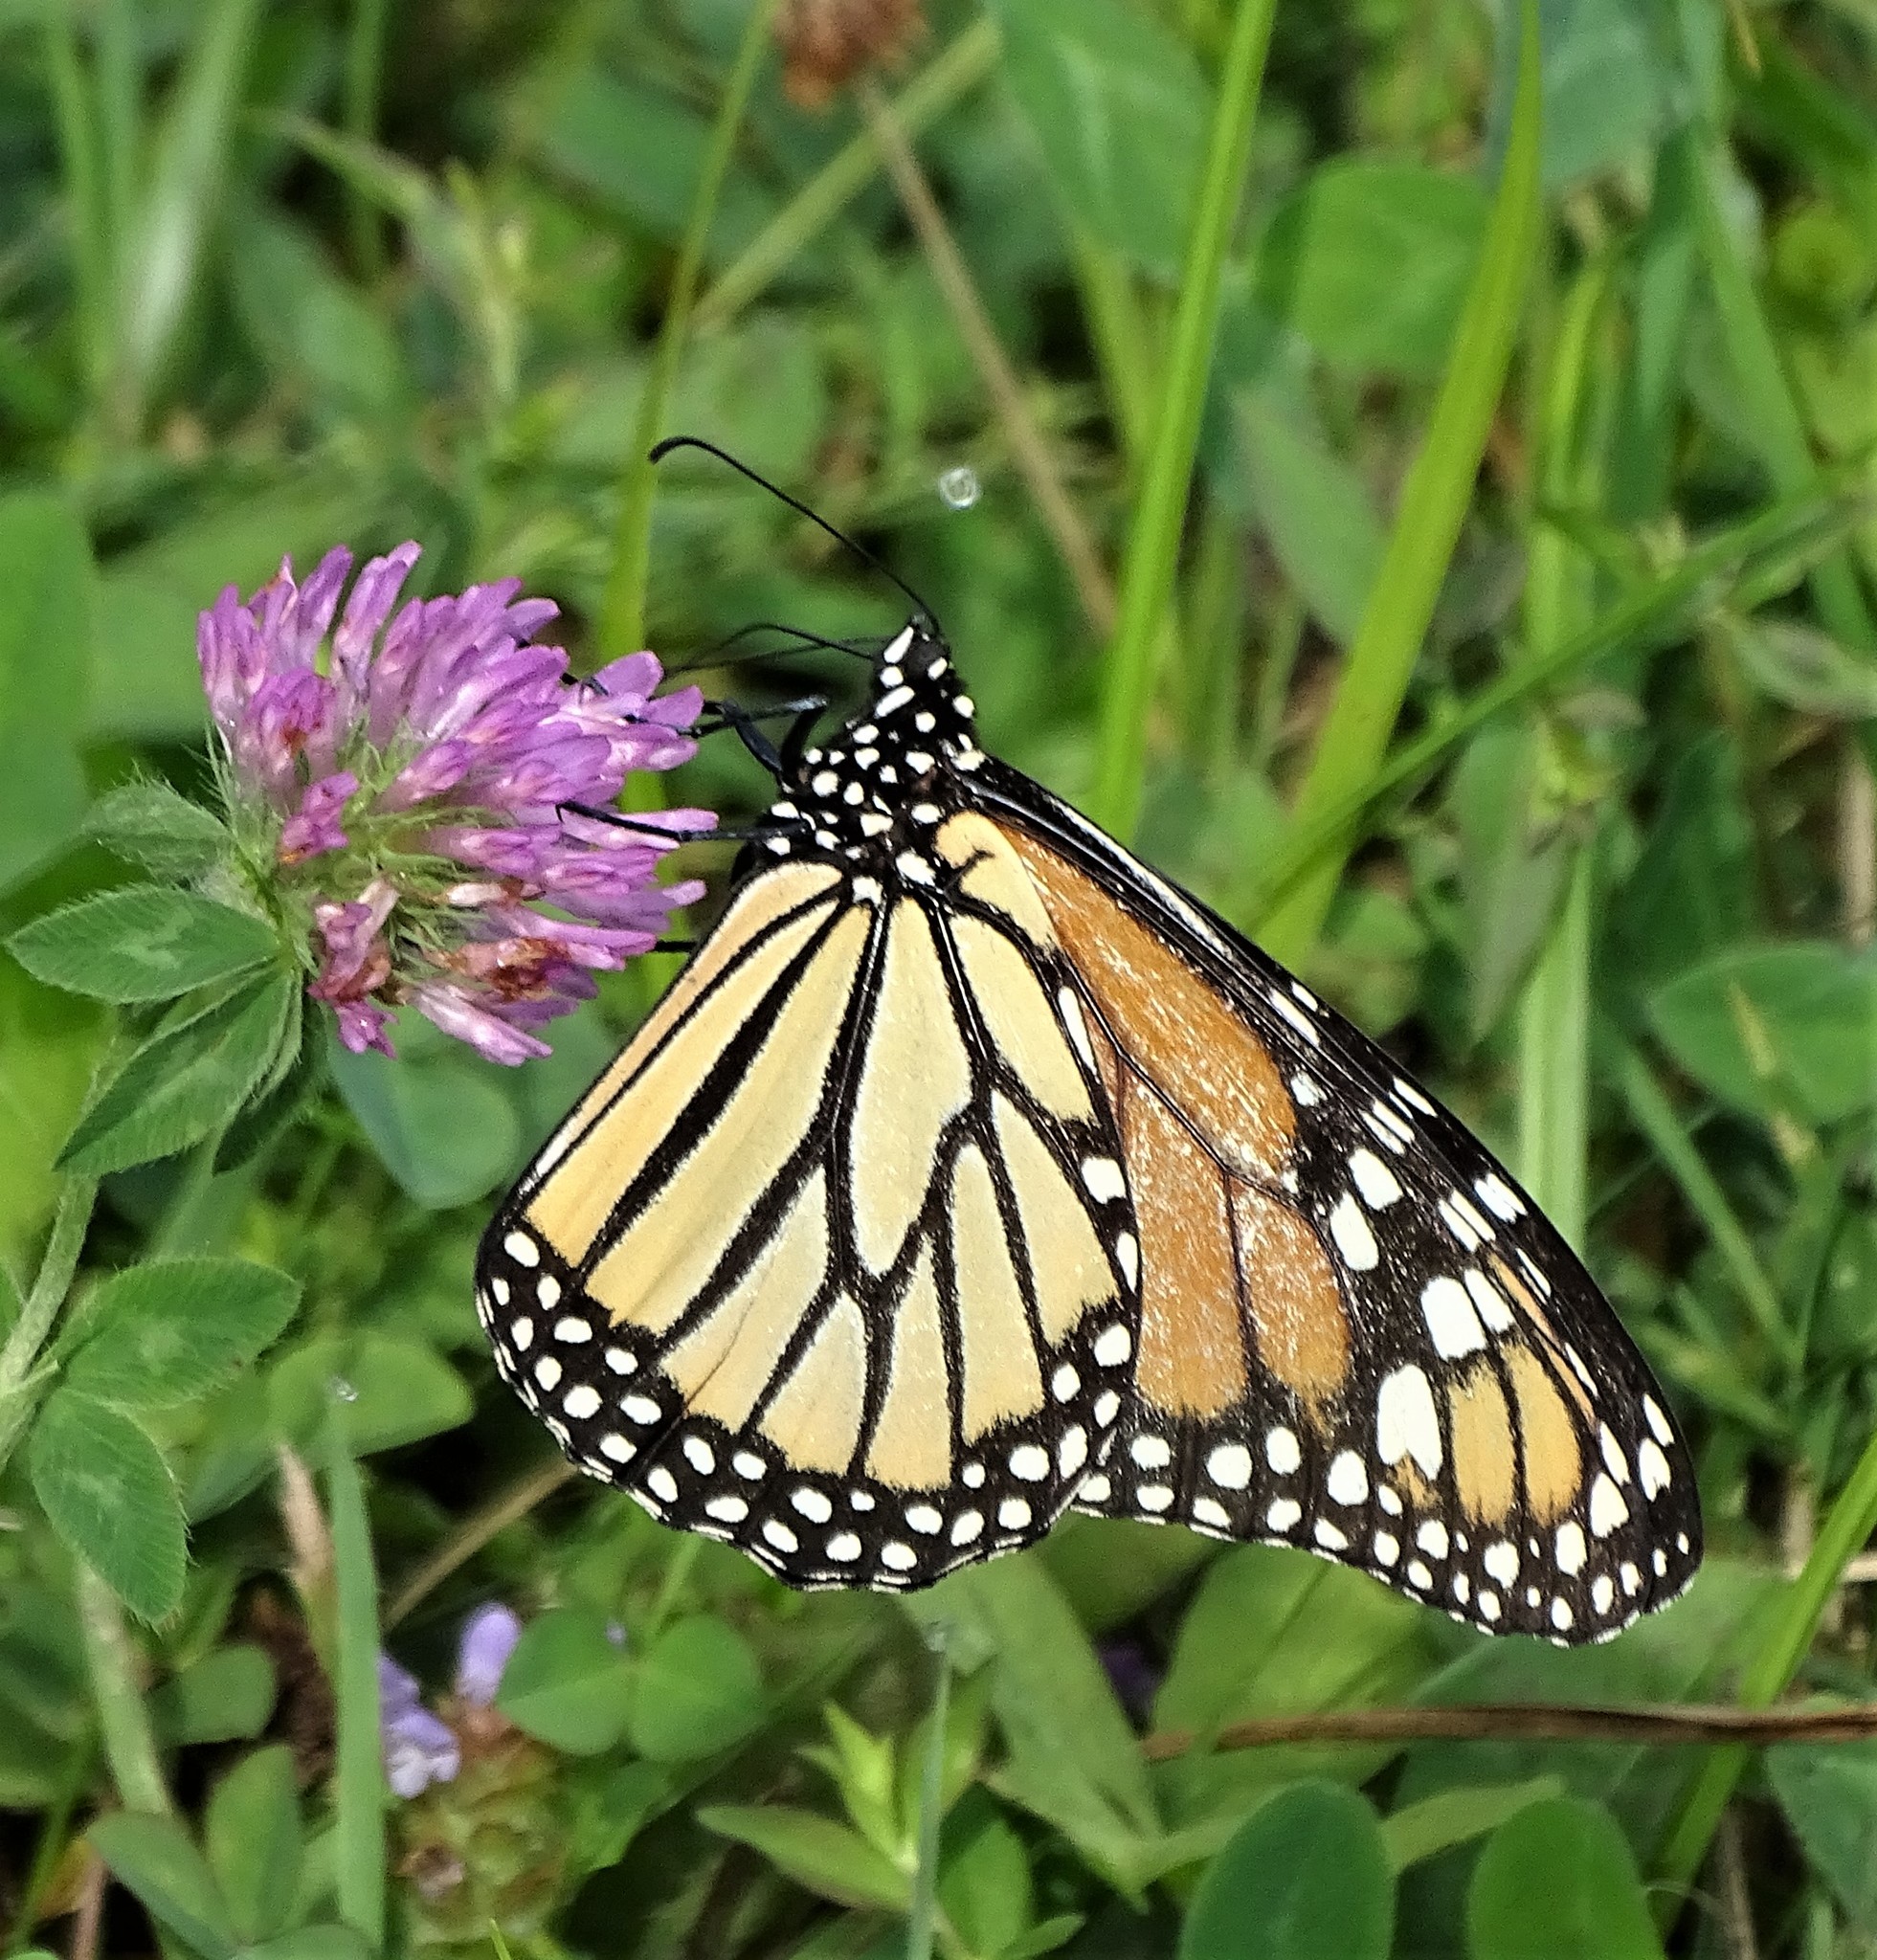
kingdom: Animalia
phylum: Arthropoda
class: Insecta
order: Lepidoptera
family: Nymphalidae
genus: Danaus
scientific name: Danaus plexippus
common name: Monarch
